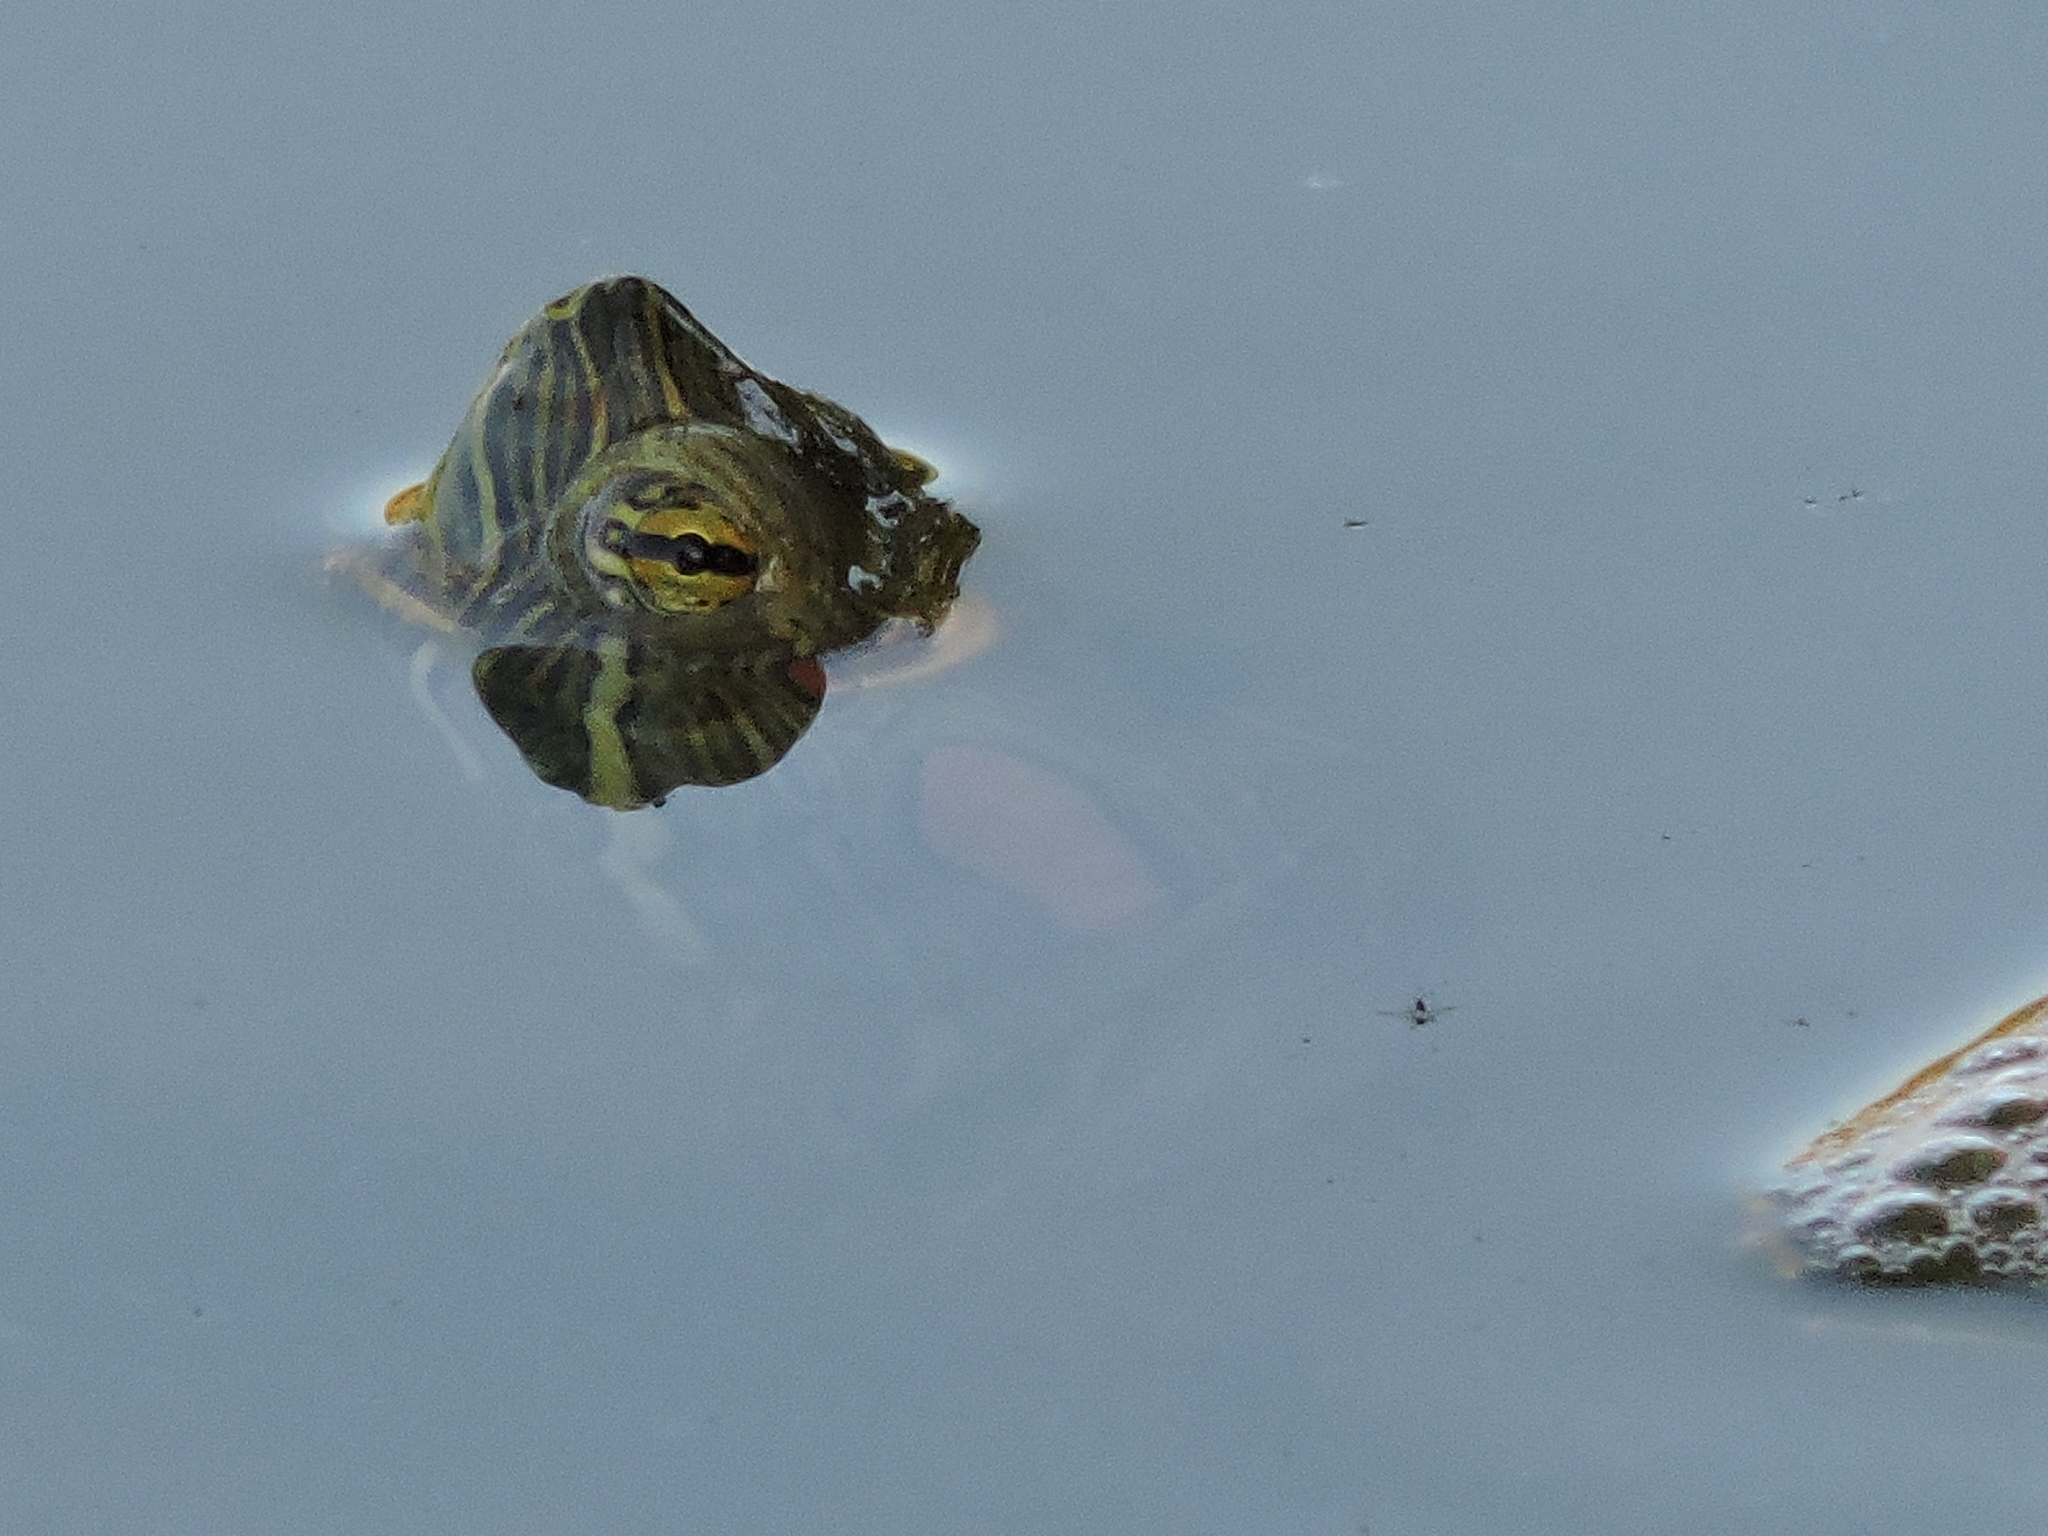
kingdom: Animalia
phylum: Chordata
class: Testudines
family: Emydidae
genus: Trachemys
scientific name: Trachemys scripta
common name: Slider
